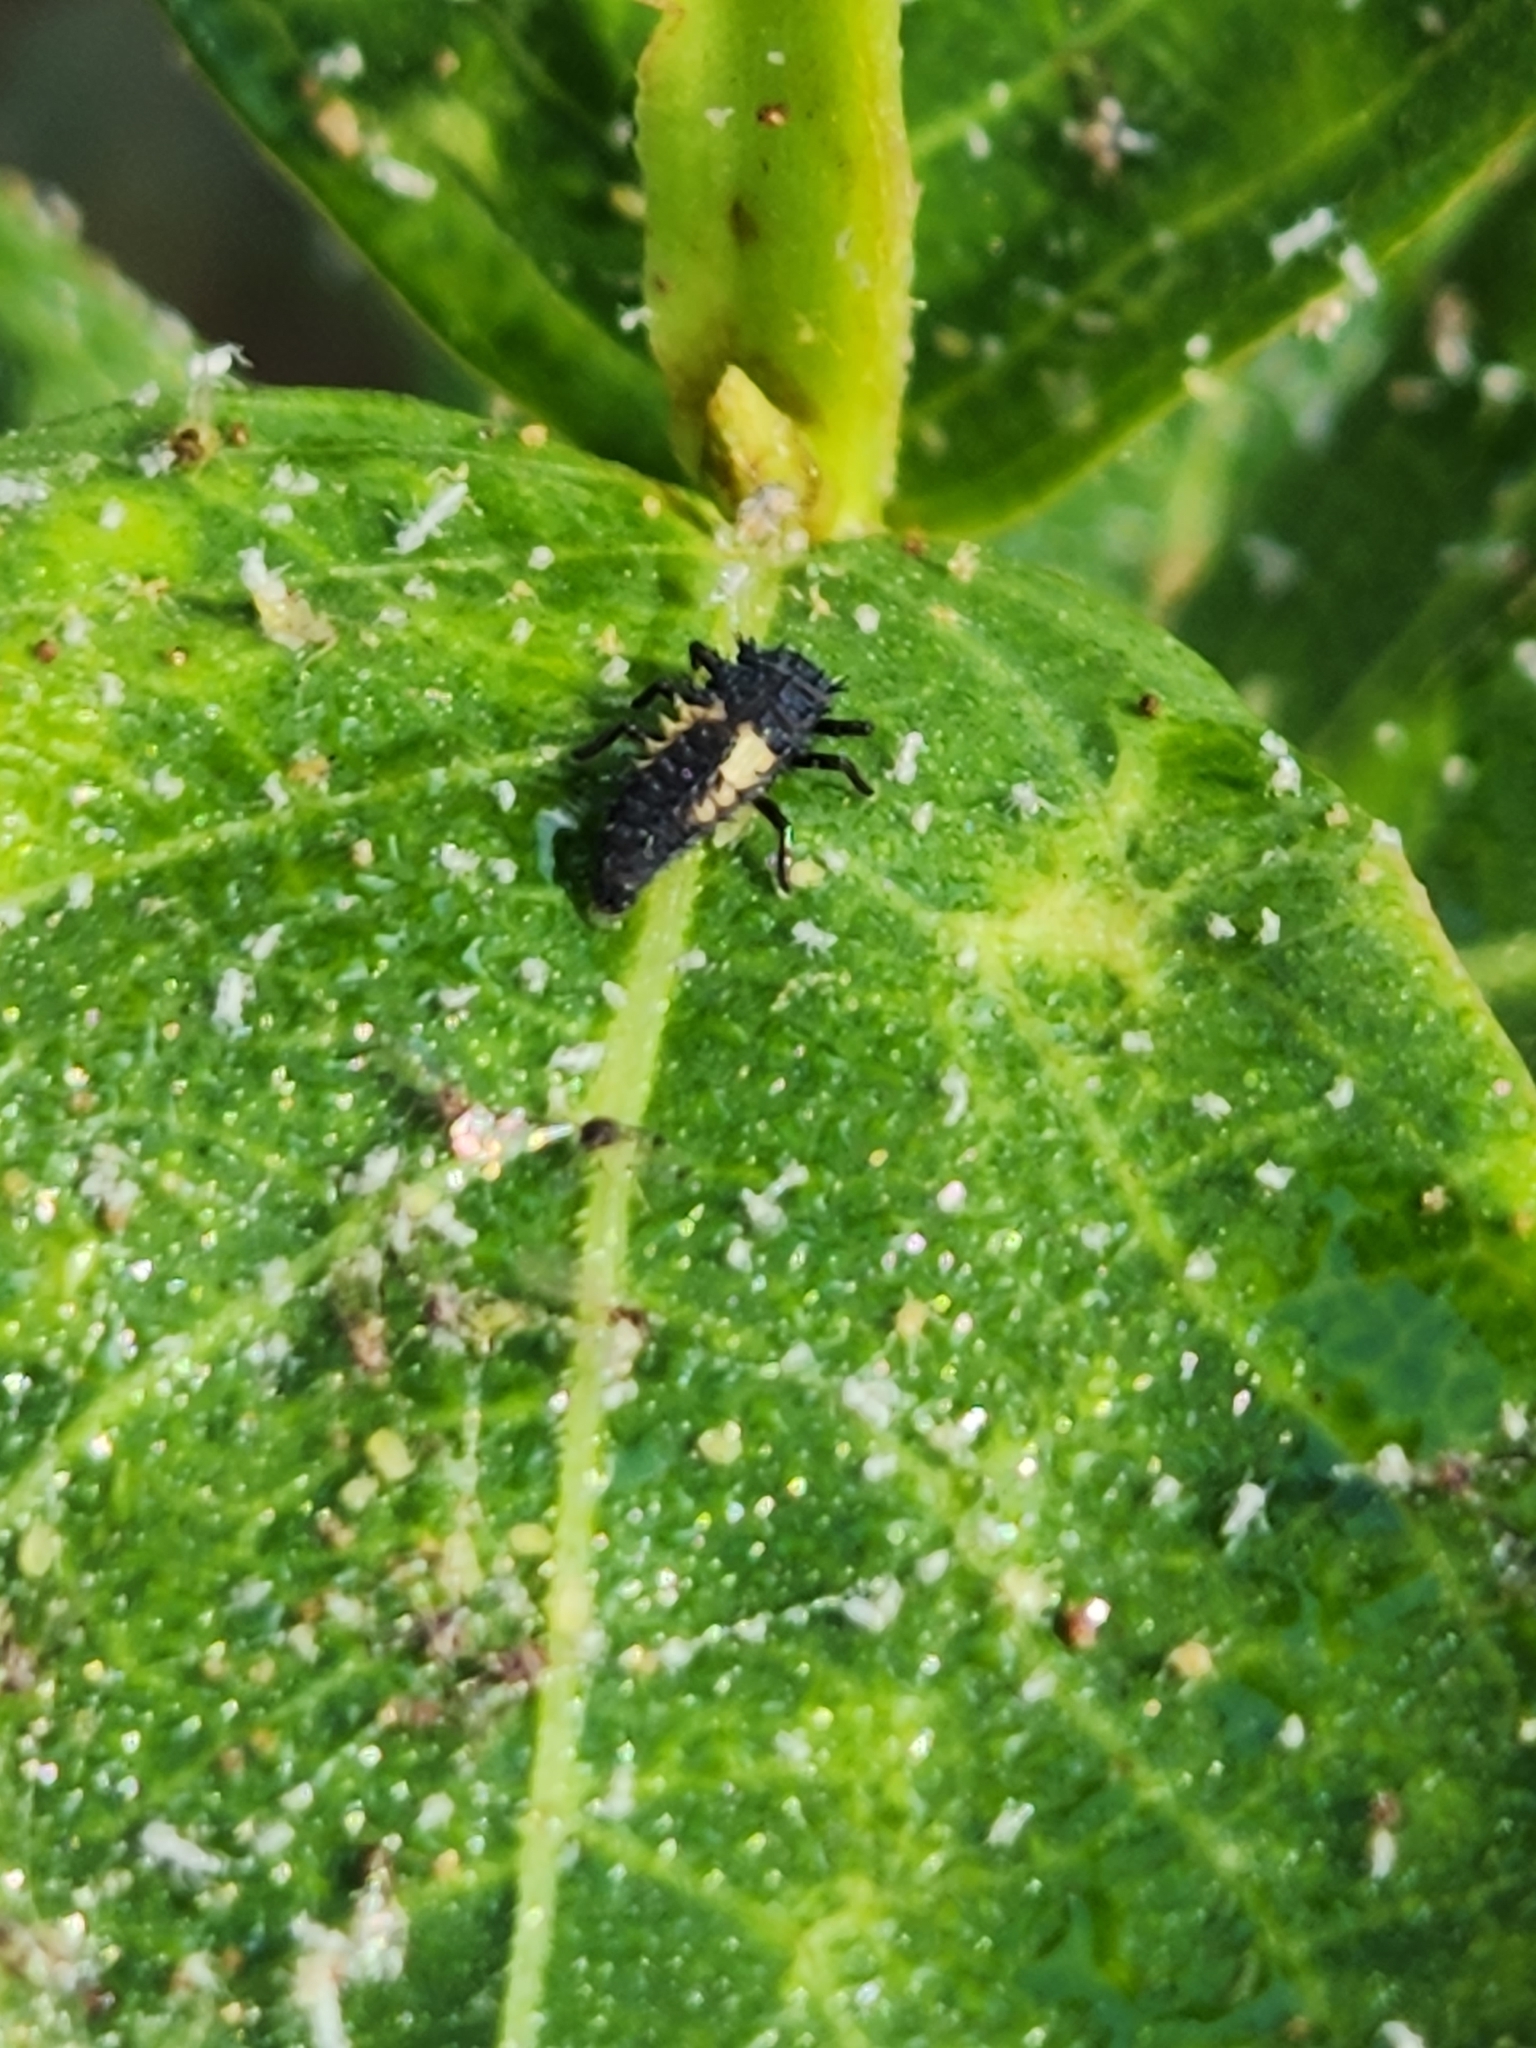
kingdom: Animalia
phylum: Arthropoda
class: Insecta
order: Coleoptera
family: Coccinellidae
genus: Harmonia
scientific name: Harmonia axyridis
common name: Harlequin ladybird
